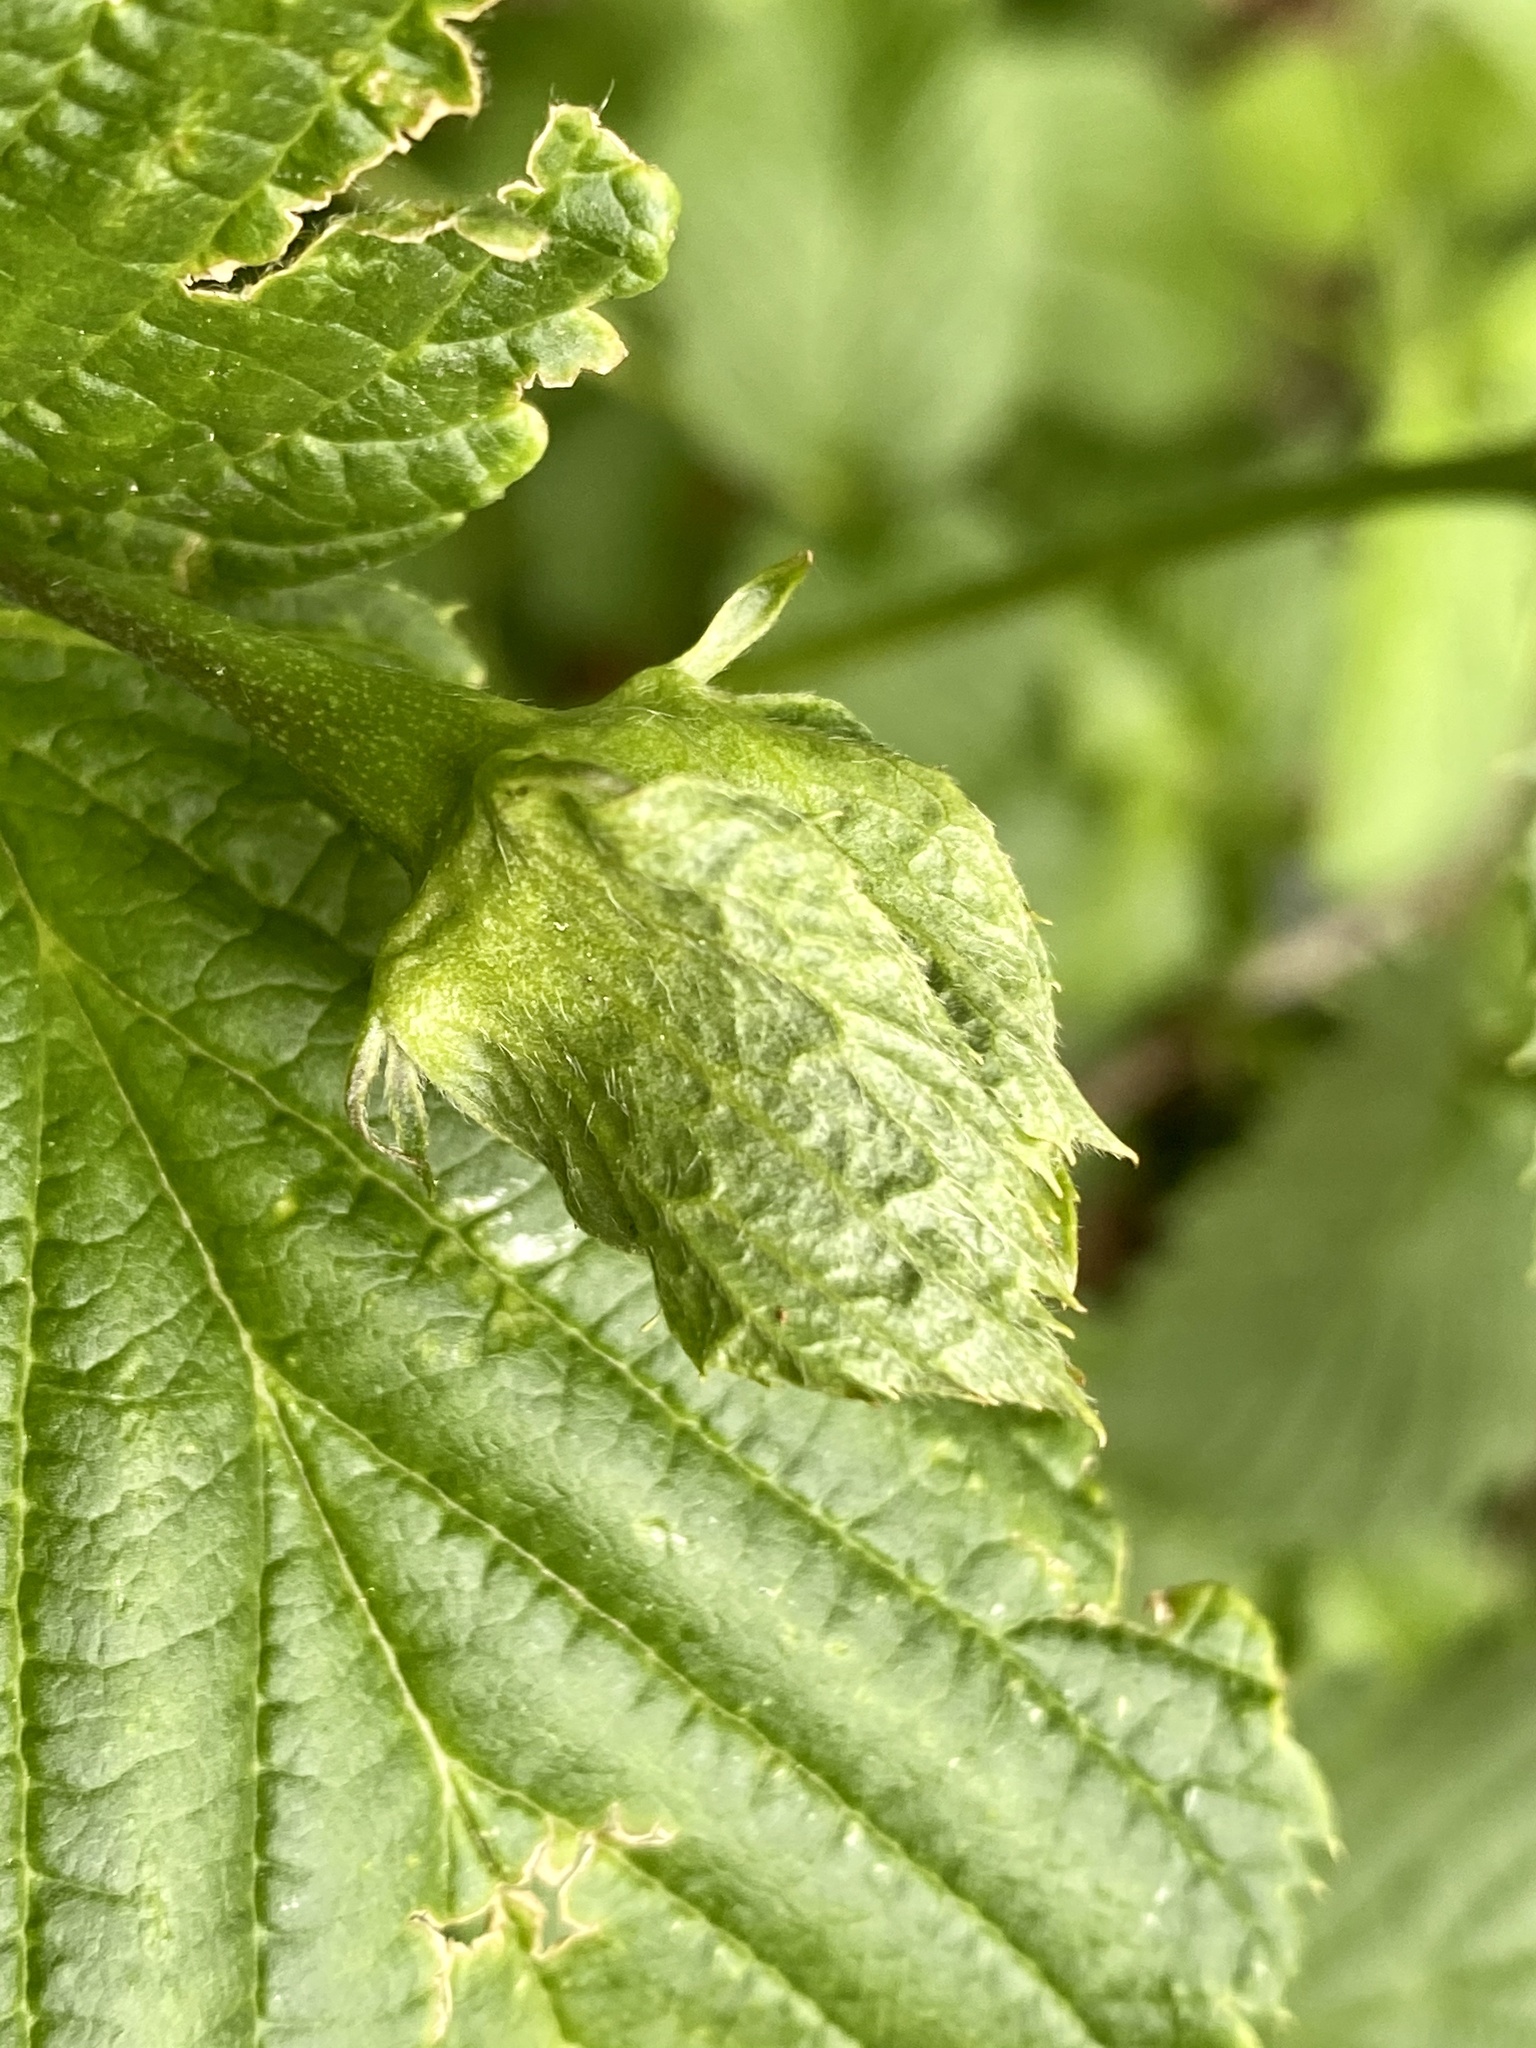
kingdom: Plantae
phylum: Tracheophyta
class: Magnoliopsida
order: Rosales
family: Rosaceae
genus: Rhodotypos
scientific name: Rhodotypos scandens
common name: Jetbead
